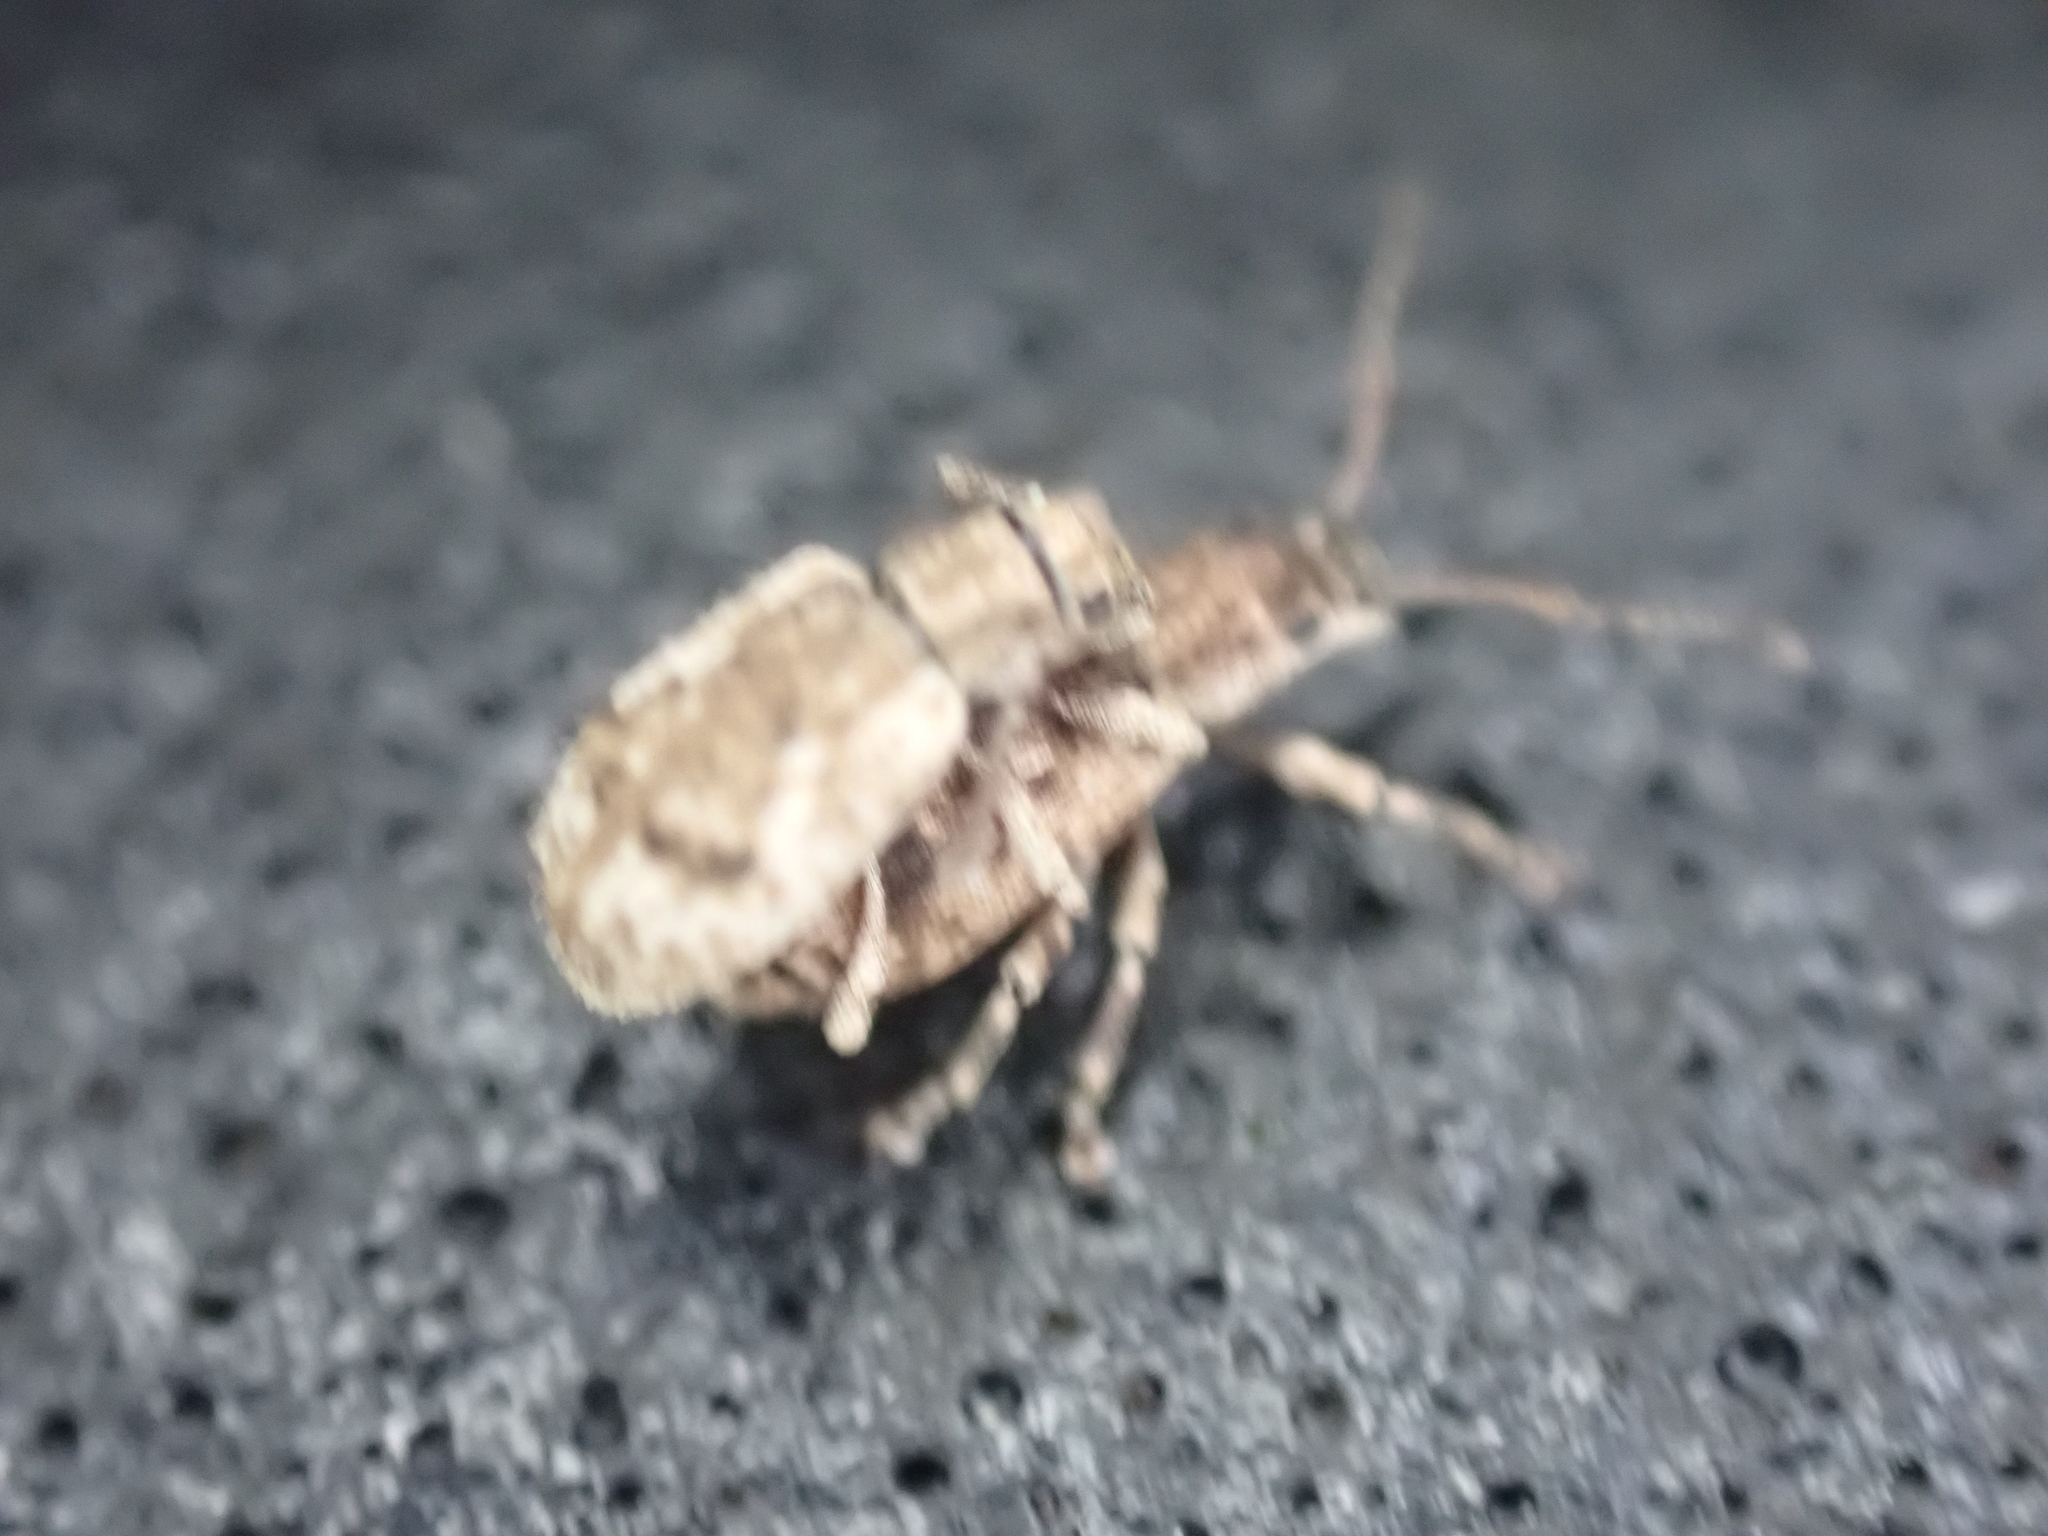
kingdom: Animalia
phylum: Arthropoda
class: Insecta
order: Coleoptera
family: Curculionidae
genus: Pseudoedophrys
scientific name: Pseudoedophrys hilleri
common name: Weevil
